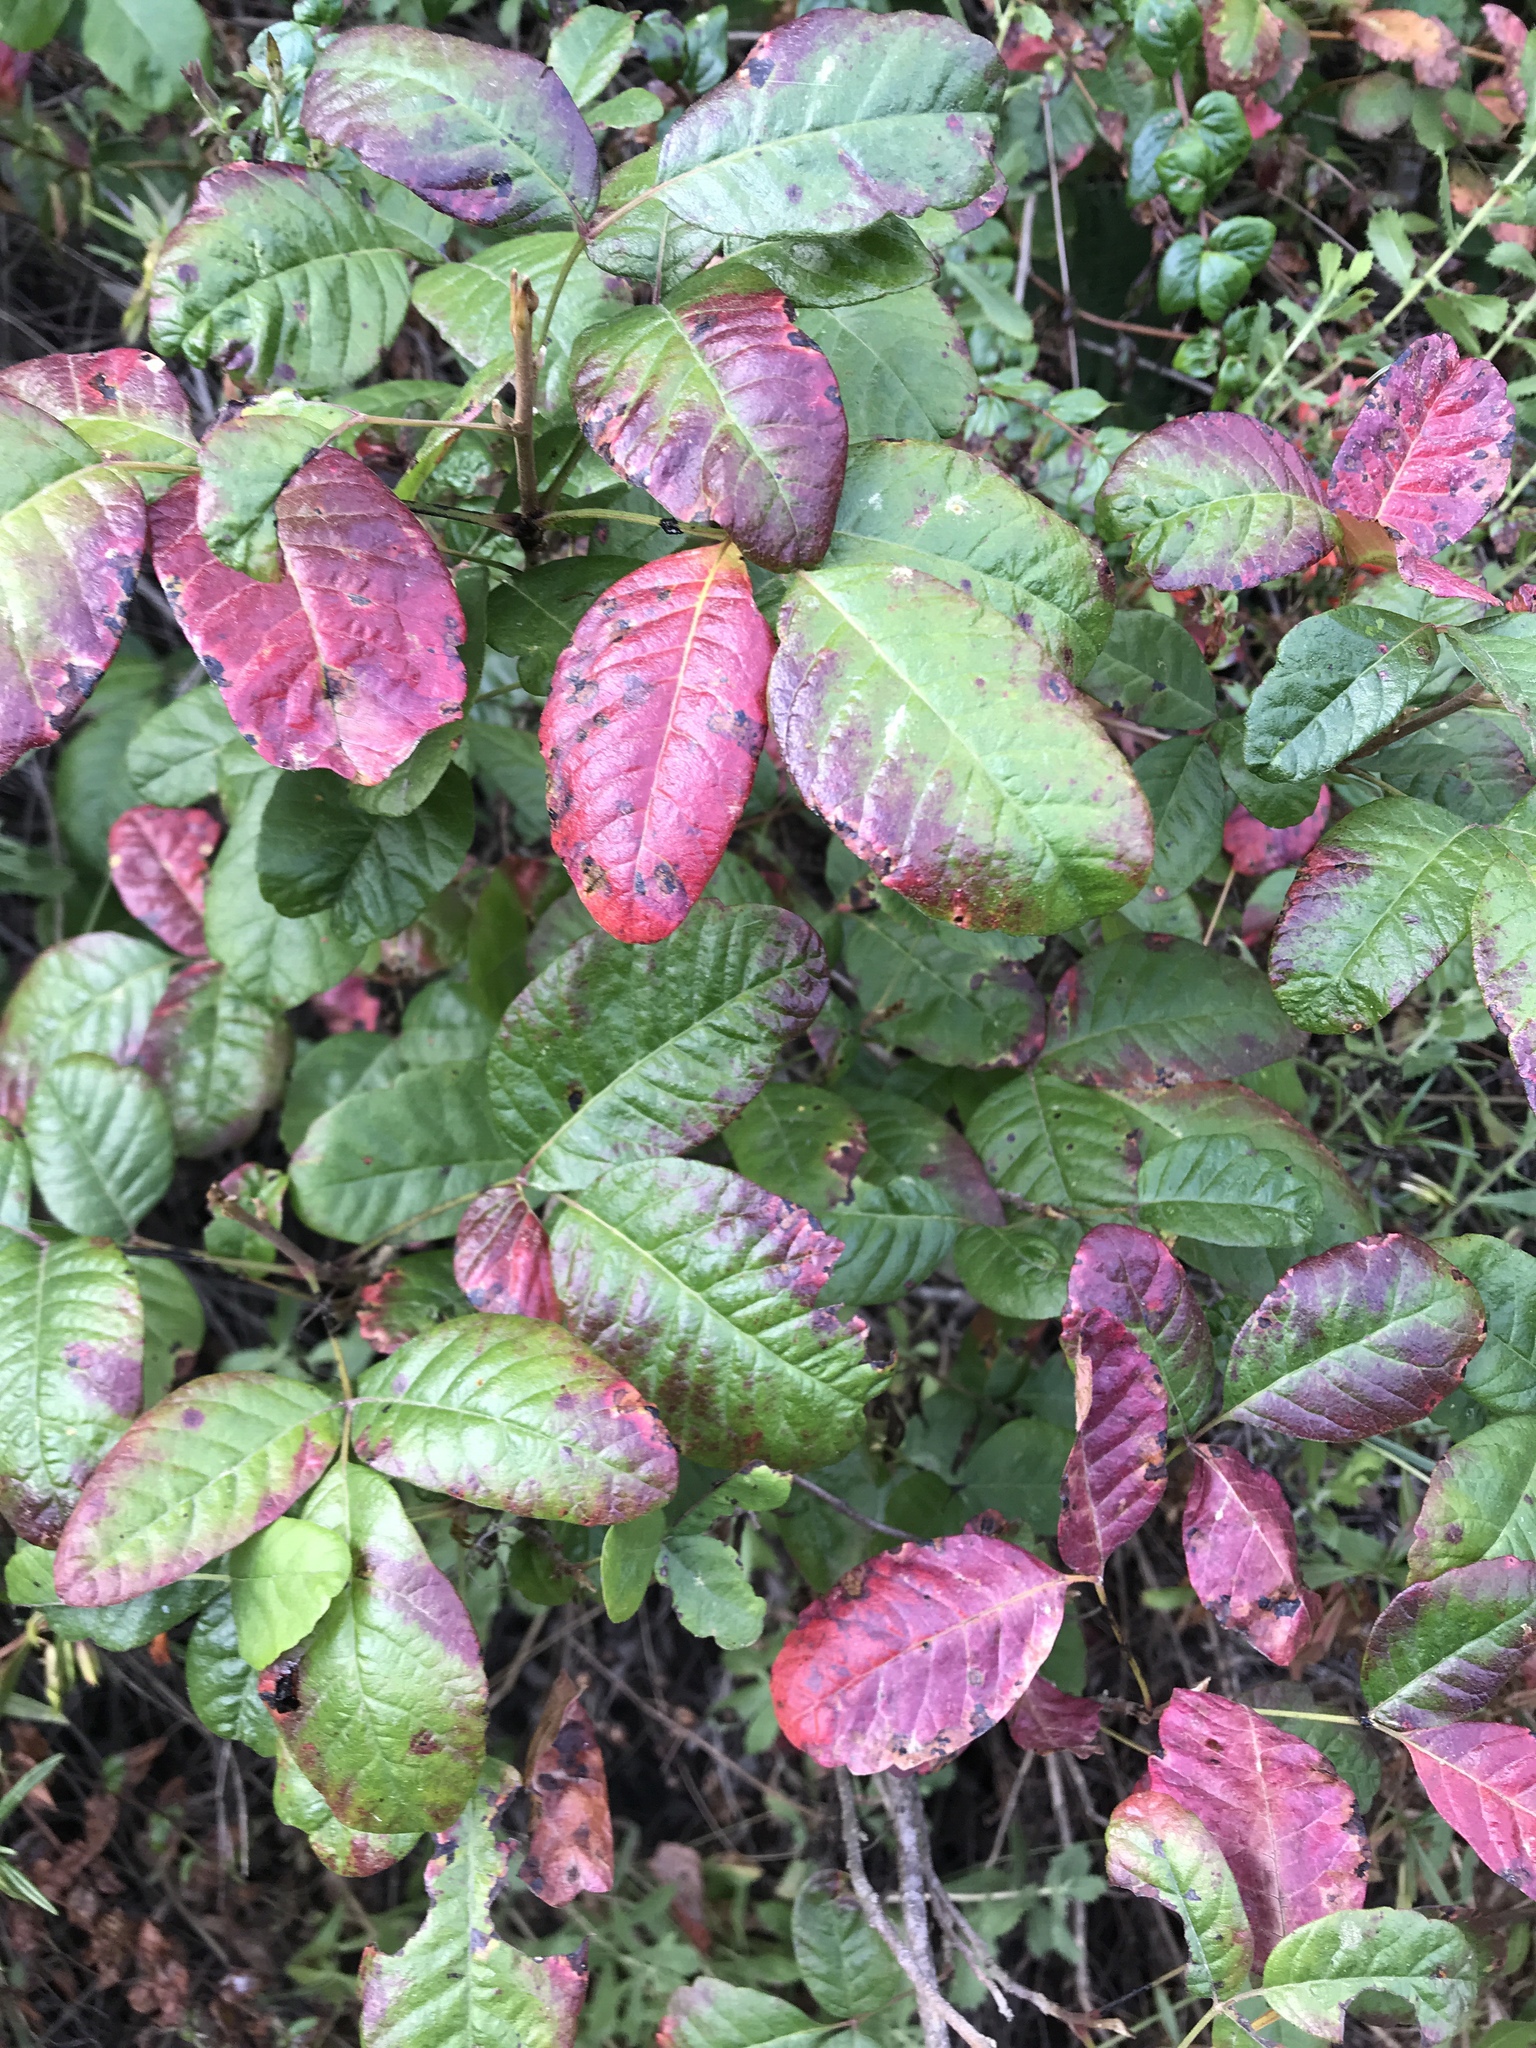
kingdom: Plantae
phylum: Tracheophyta
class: Magnoliopsida
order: Sapindales
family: Anacardiaceae
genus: Toxicodendron
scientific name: Toxicodendron diversilobum
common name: Pacific poison-oak
